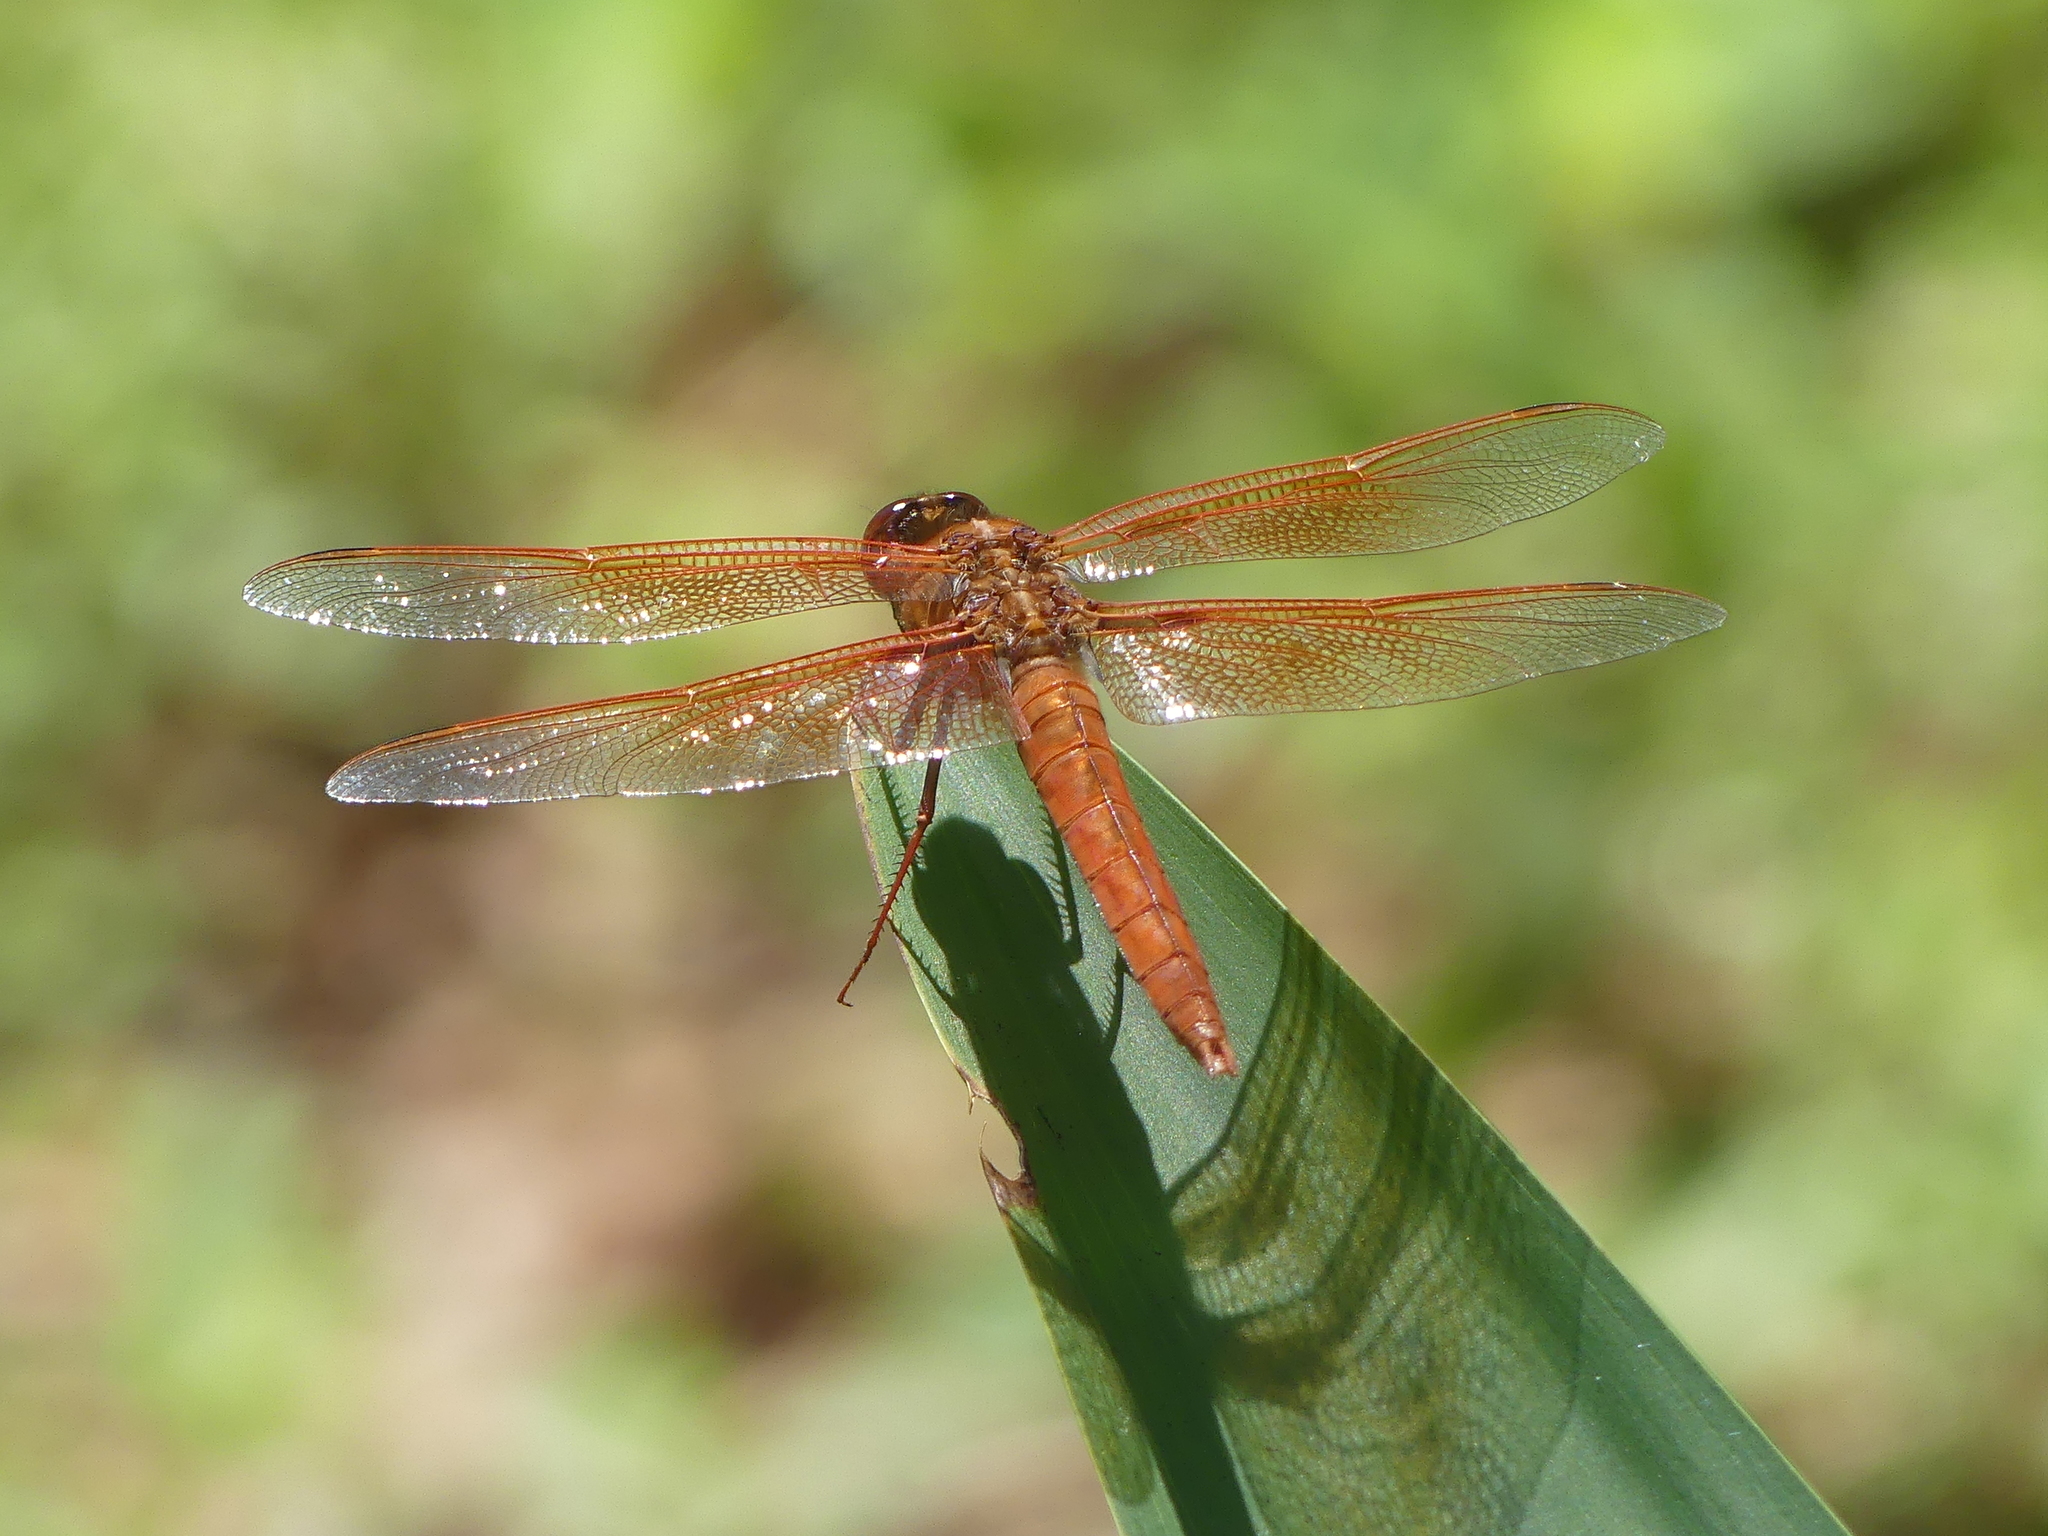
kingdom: Animalia
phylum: Arthropoda
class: Insecta
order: Odonata
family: Libellulidae
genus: Libellula
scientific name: Libellula saturata
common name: Flame skimmer
